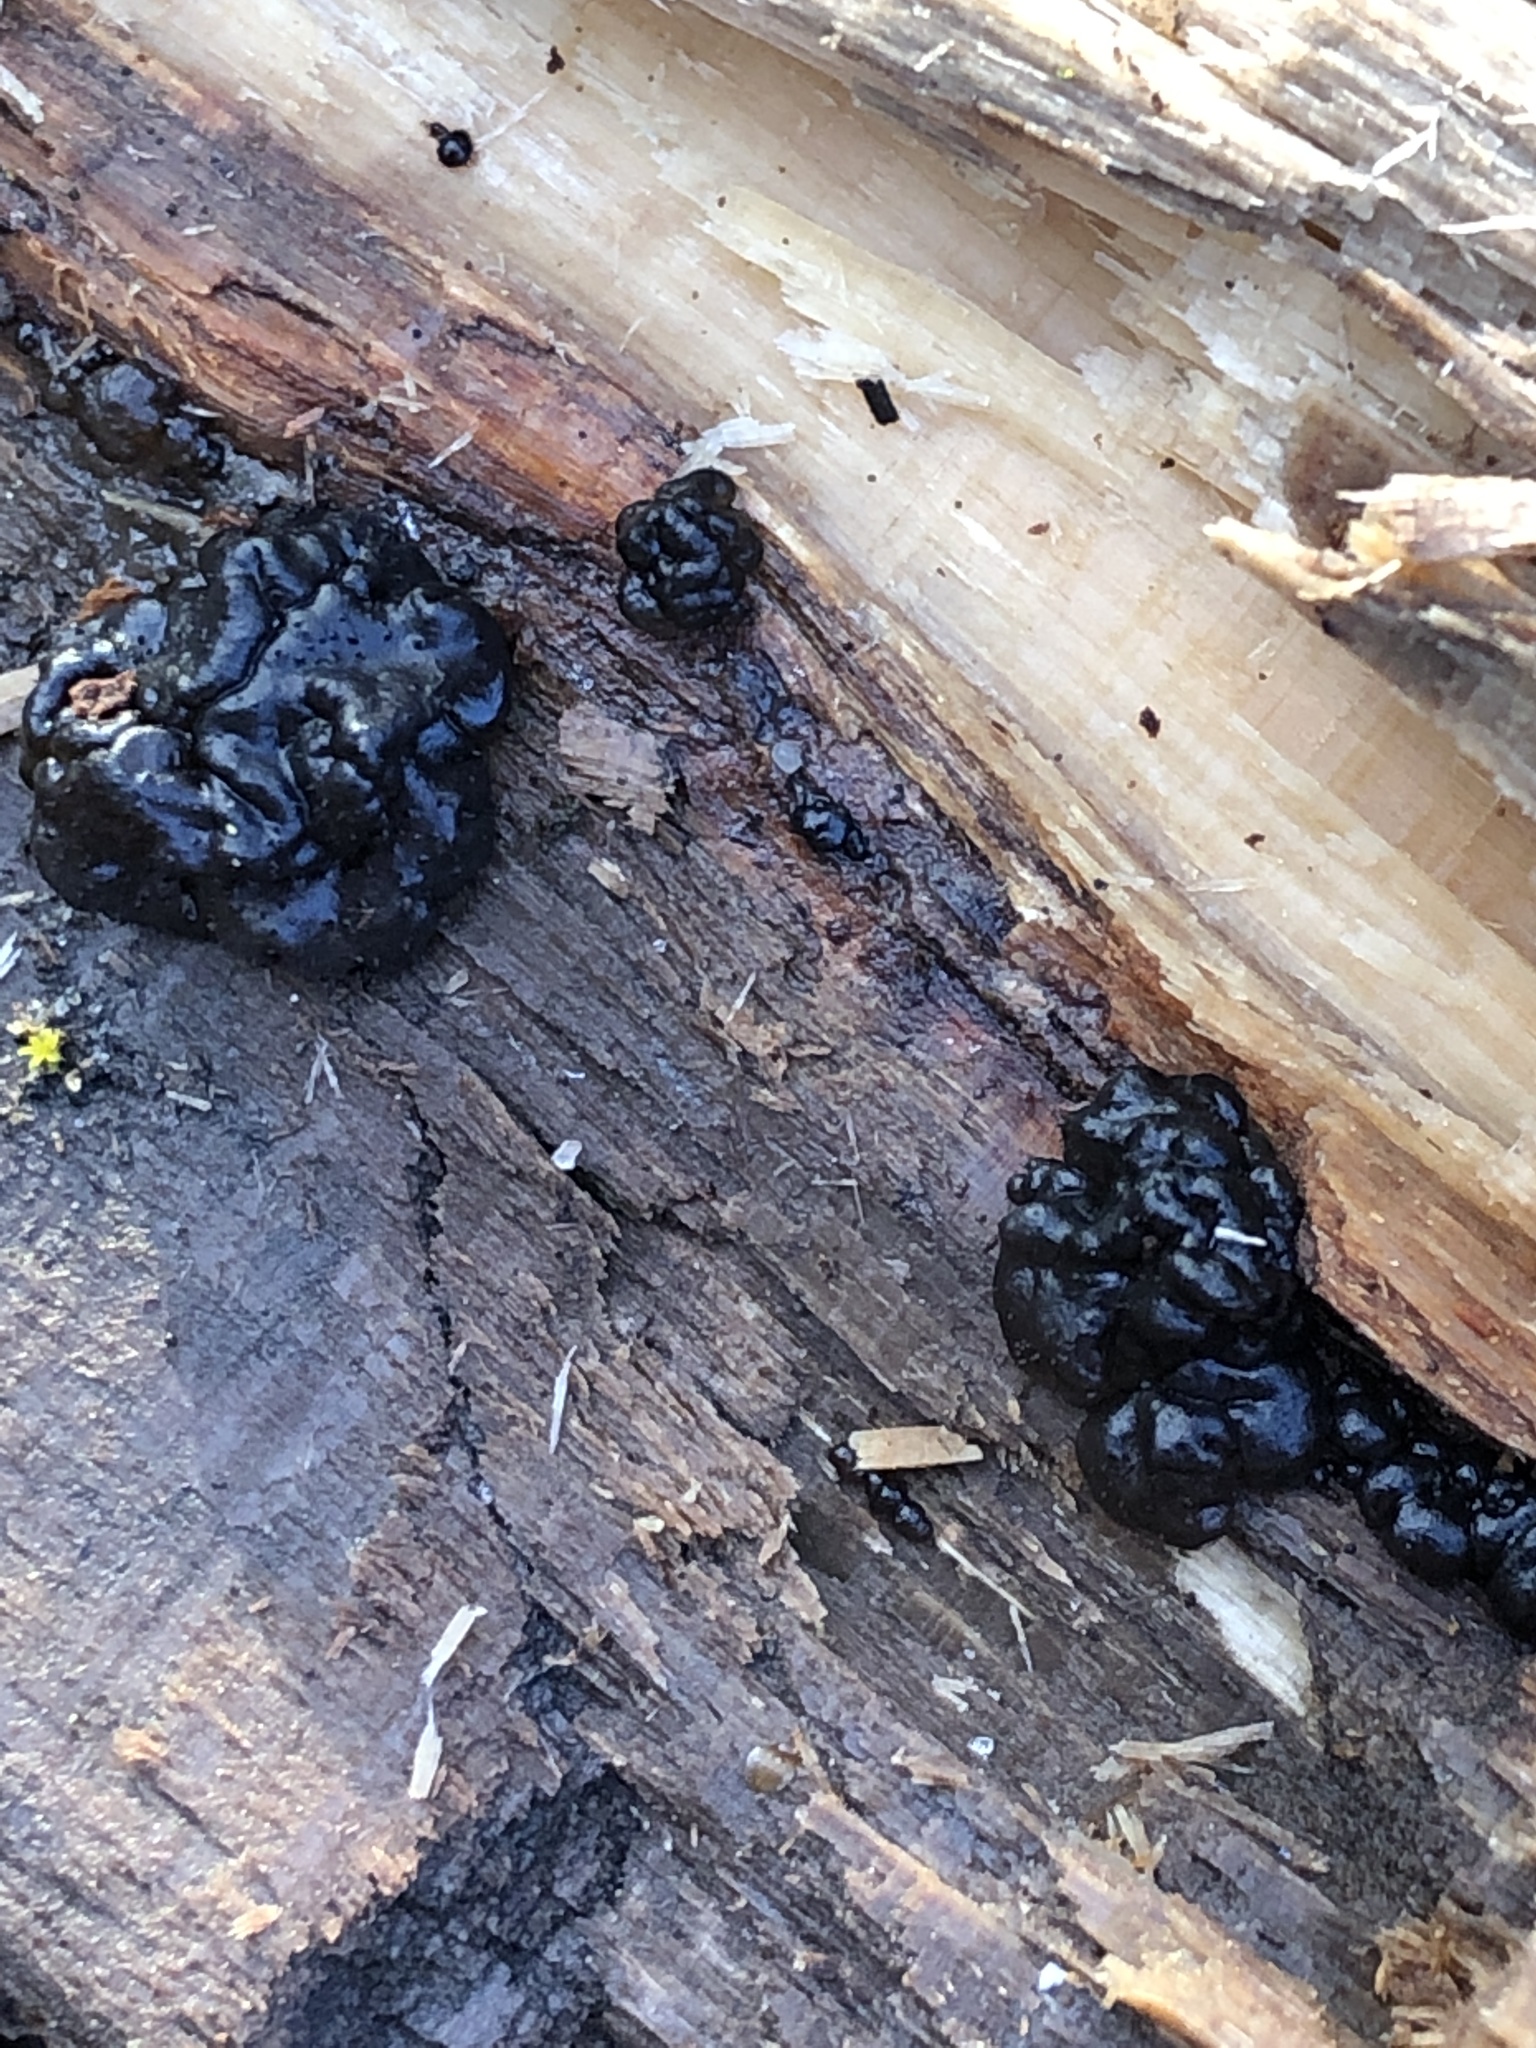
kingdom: Fungi
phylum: Basidiomycota
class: Agaricomycetes
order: Auriculariales
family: Auriculariaceae
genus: Exidia
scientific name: Exidia nigricans
